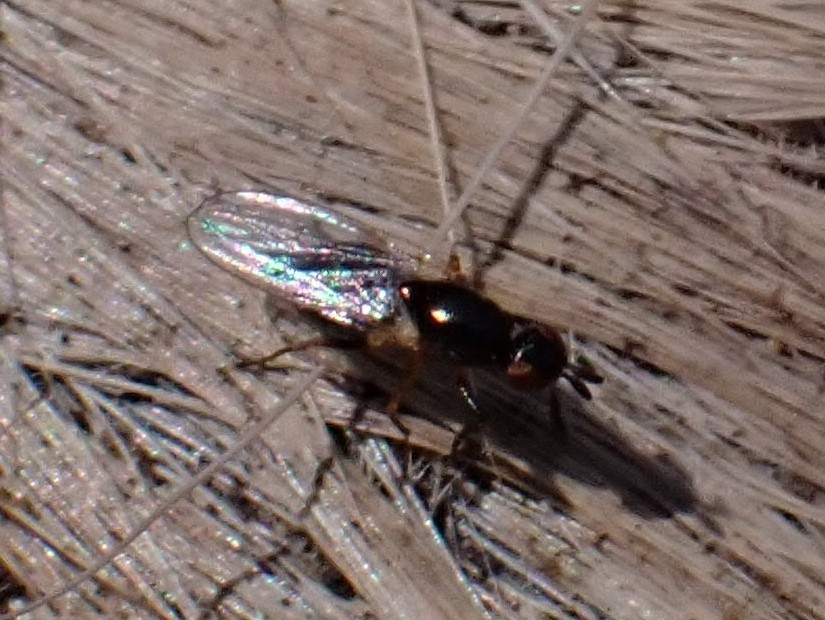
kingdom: Animalia
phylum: Arthropoda
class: Insecta
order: Diptera
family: Piophilidae
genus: Prochyliza
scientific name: Prochyliza xanthostoma
